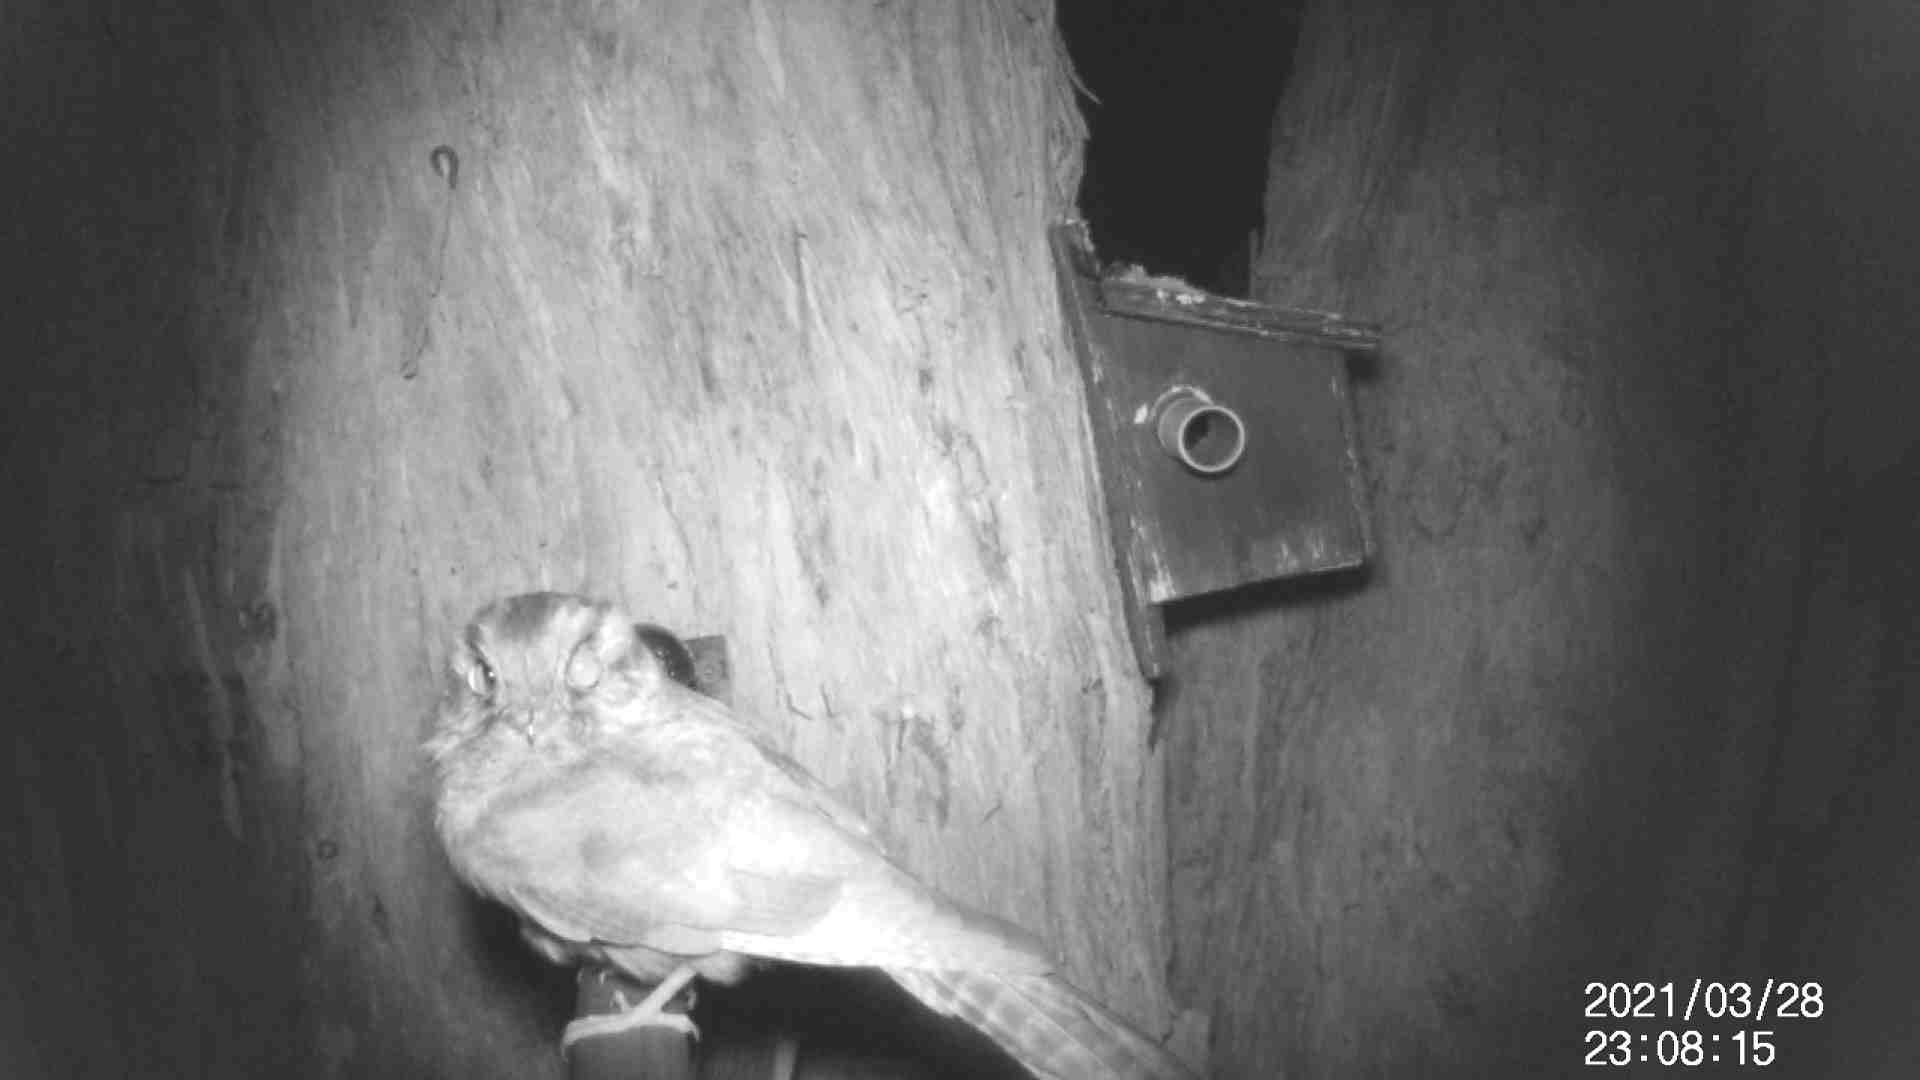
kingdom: Animalia
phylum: Chordata
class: Aves
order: Apodiformes
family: Aegothelidae
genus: Aegotheles
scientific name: Aegotheles cristatus
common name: Australian owlet-nightjar
